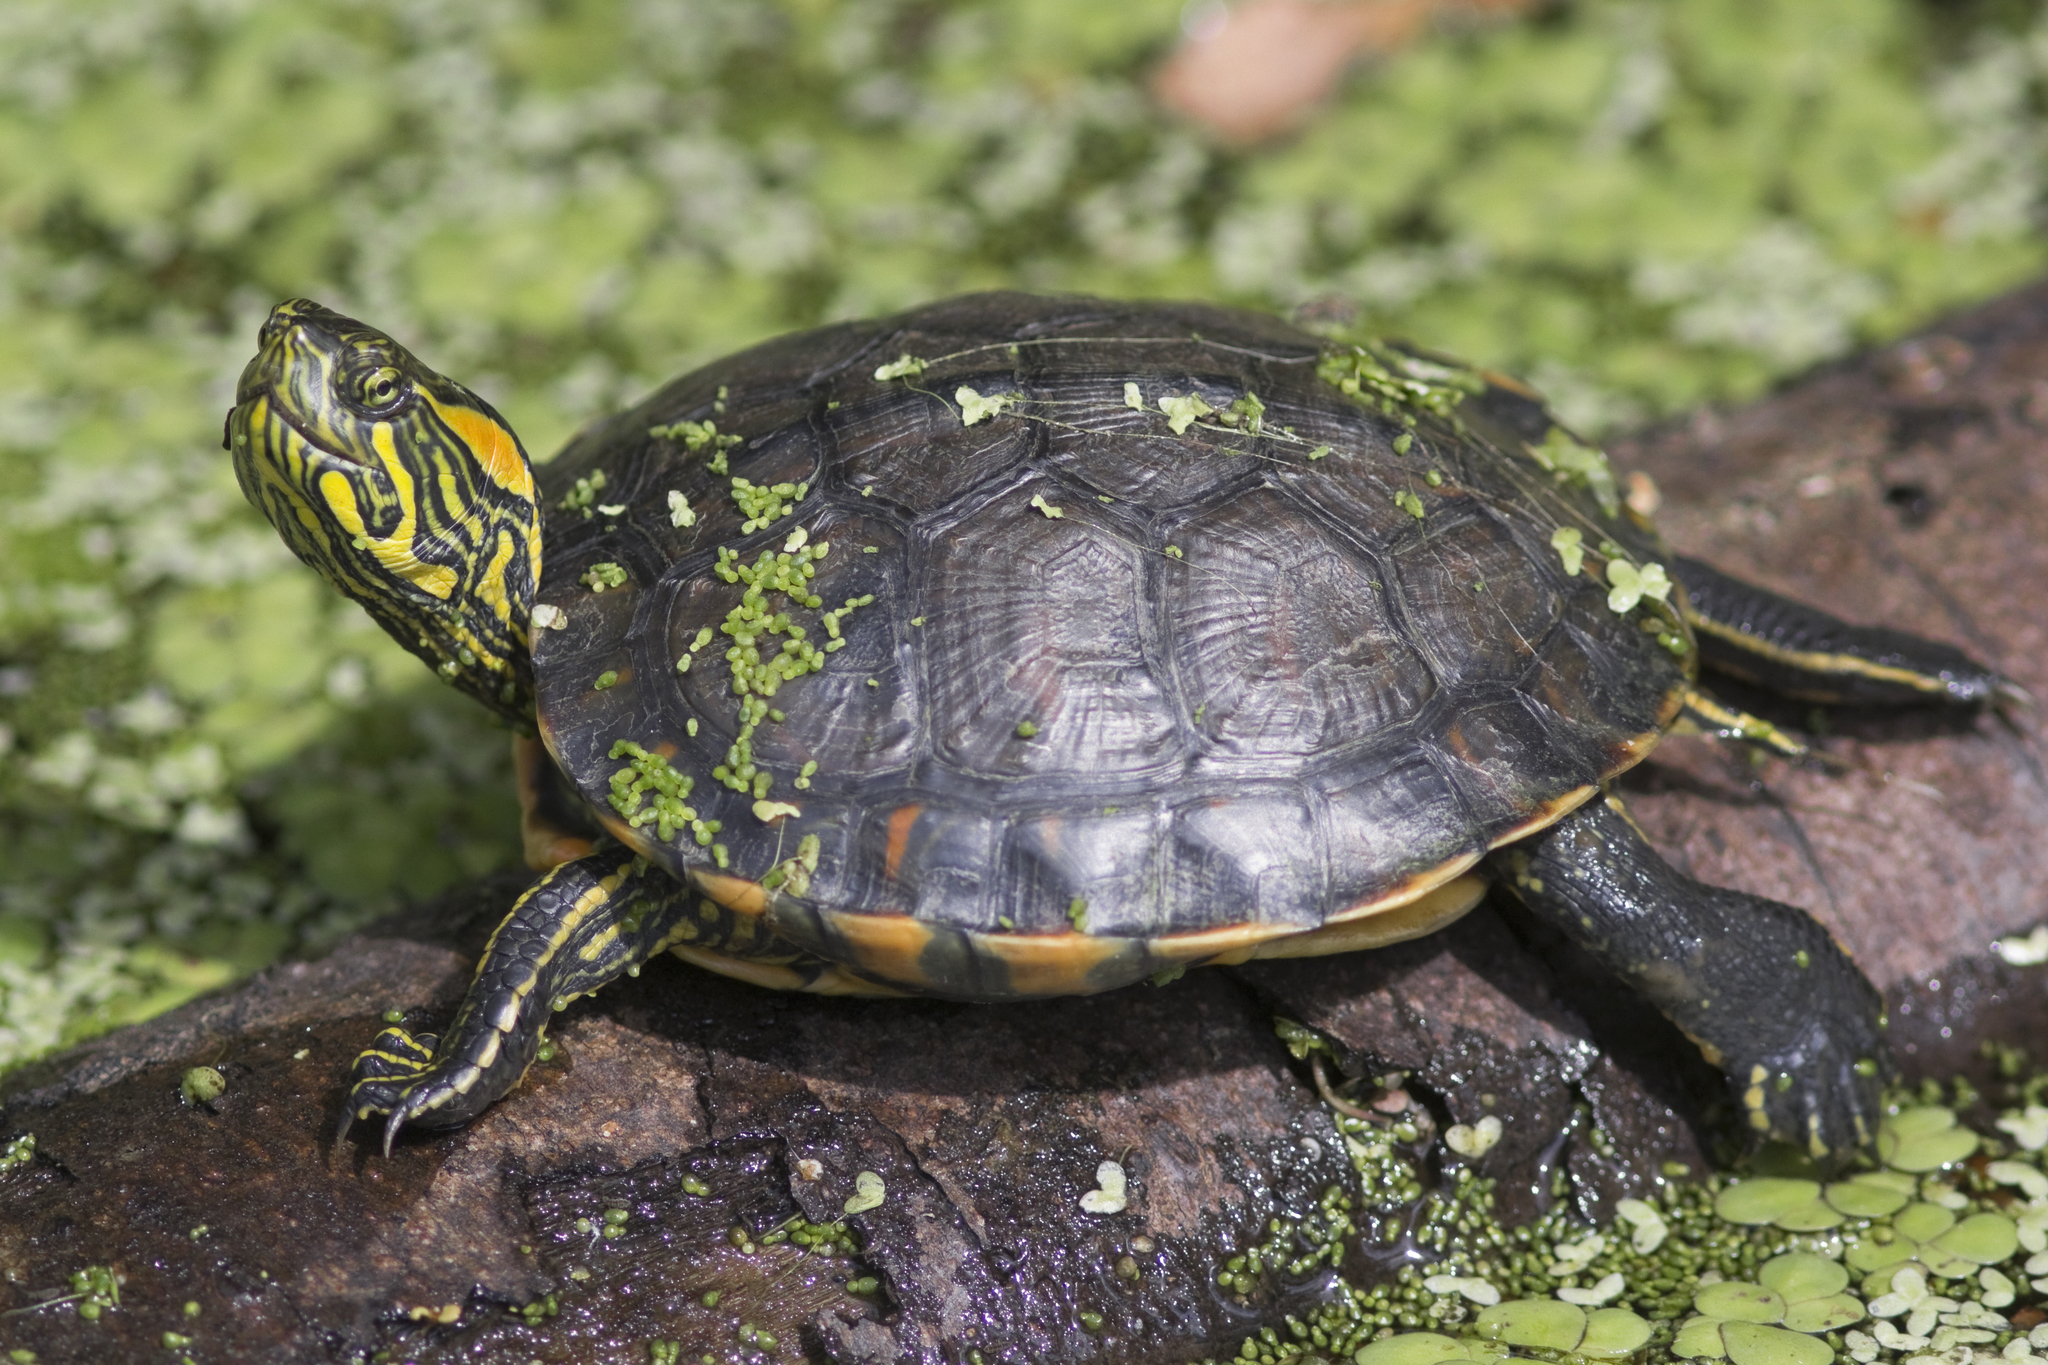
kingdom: Animalia
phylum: Chordata
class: Testudines
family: Emydidae
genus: Trachemys
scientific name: Trachemys dorbigni
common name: Black-bellied slider
